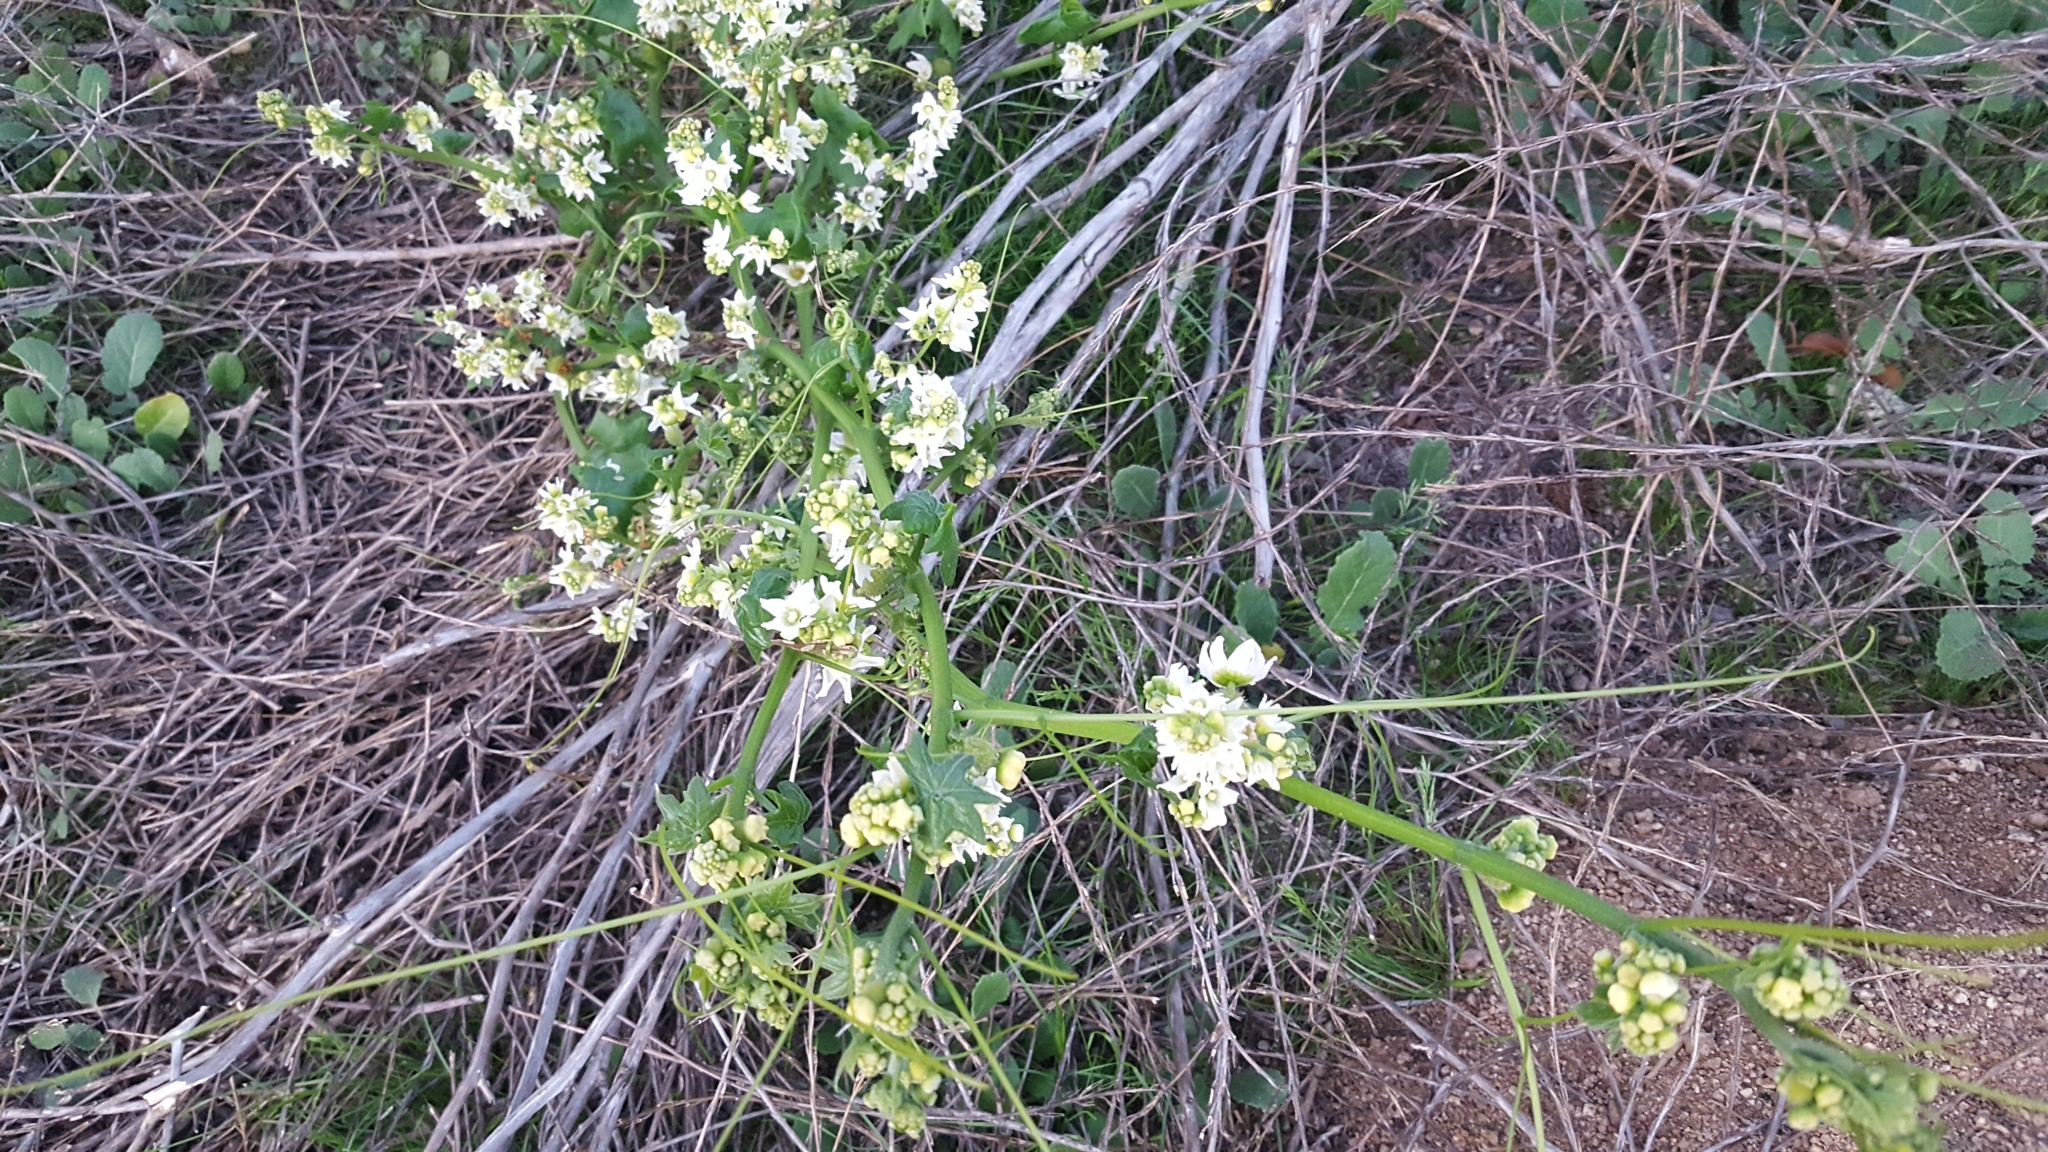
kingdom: Plantae
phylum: Tracheophyta
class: Magnoliopsida
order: Cucurbitales
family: Cucurbitaceae
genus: Marah
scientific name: Marah macrocarpa
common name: Cucamonga manroot
